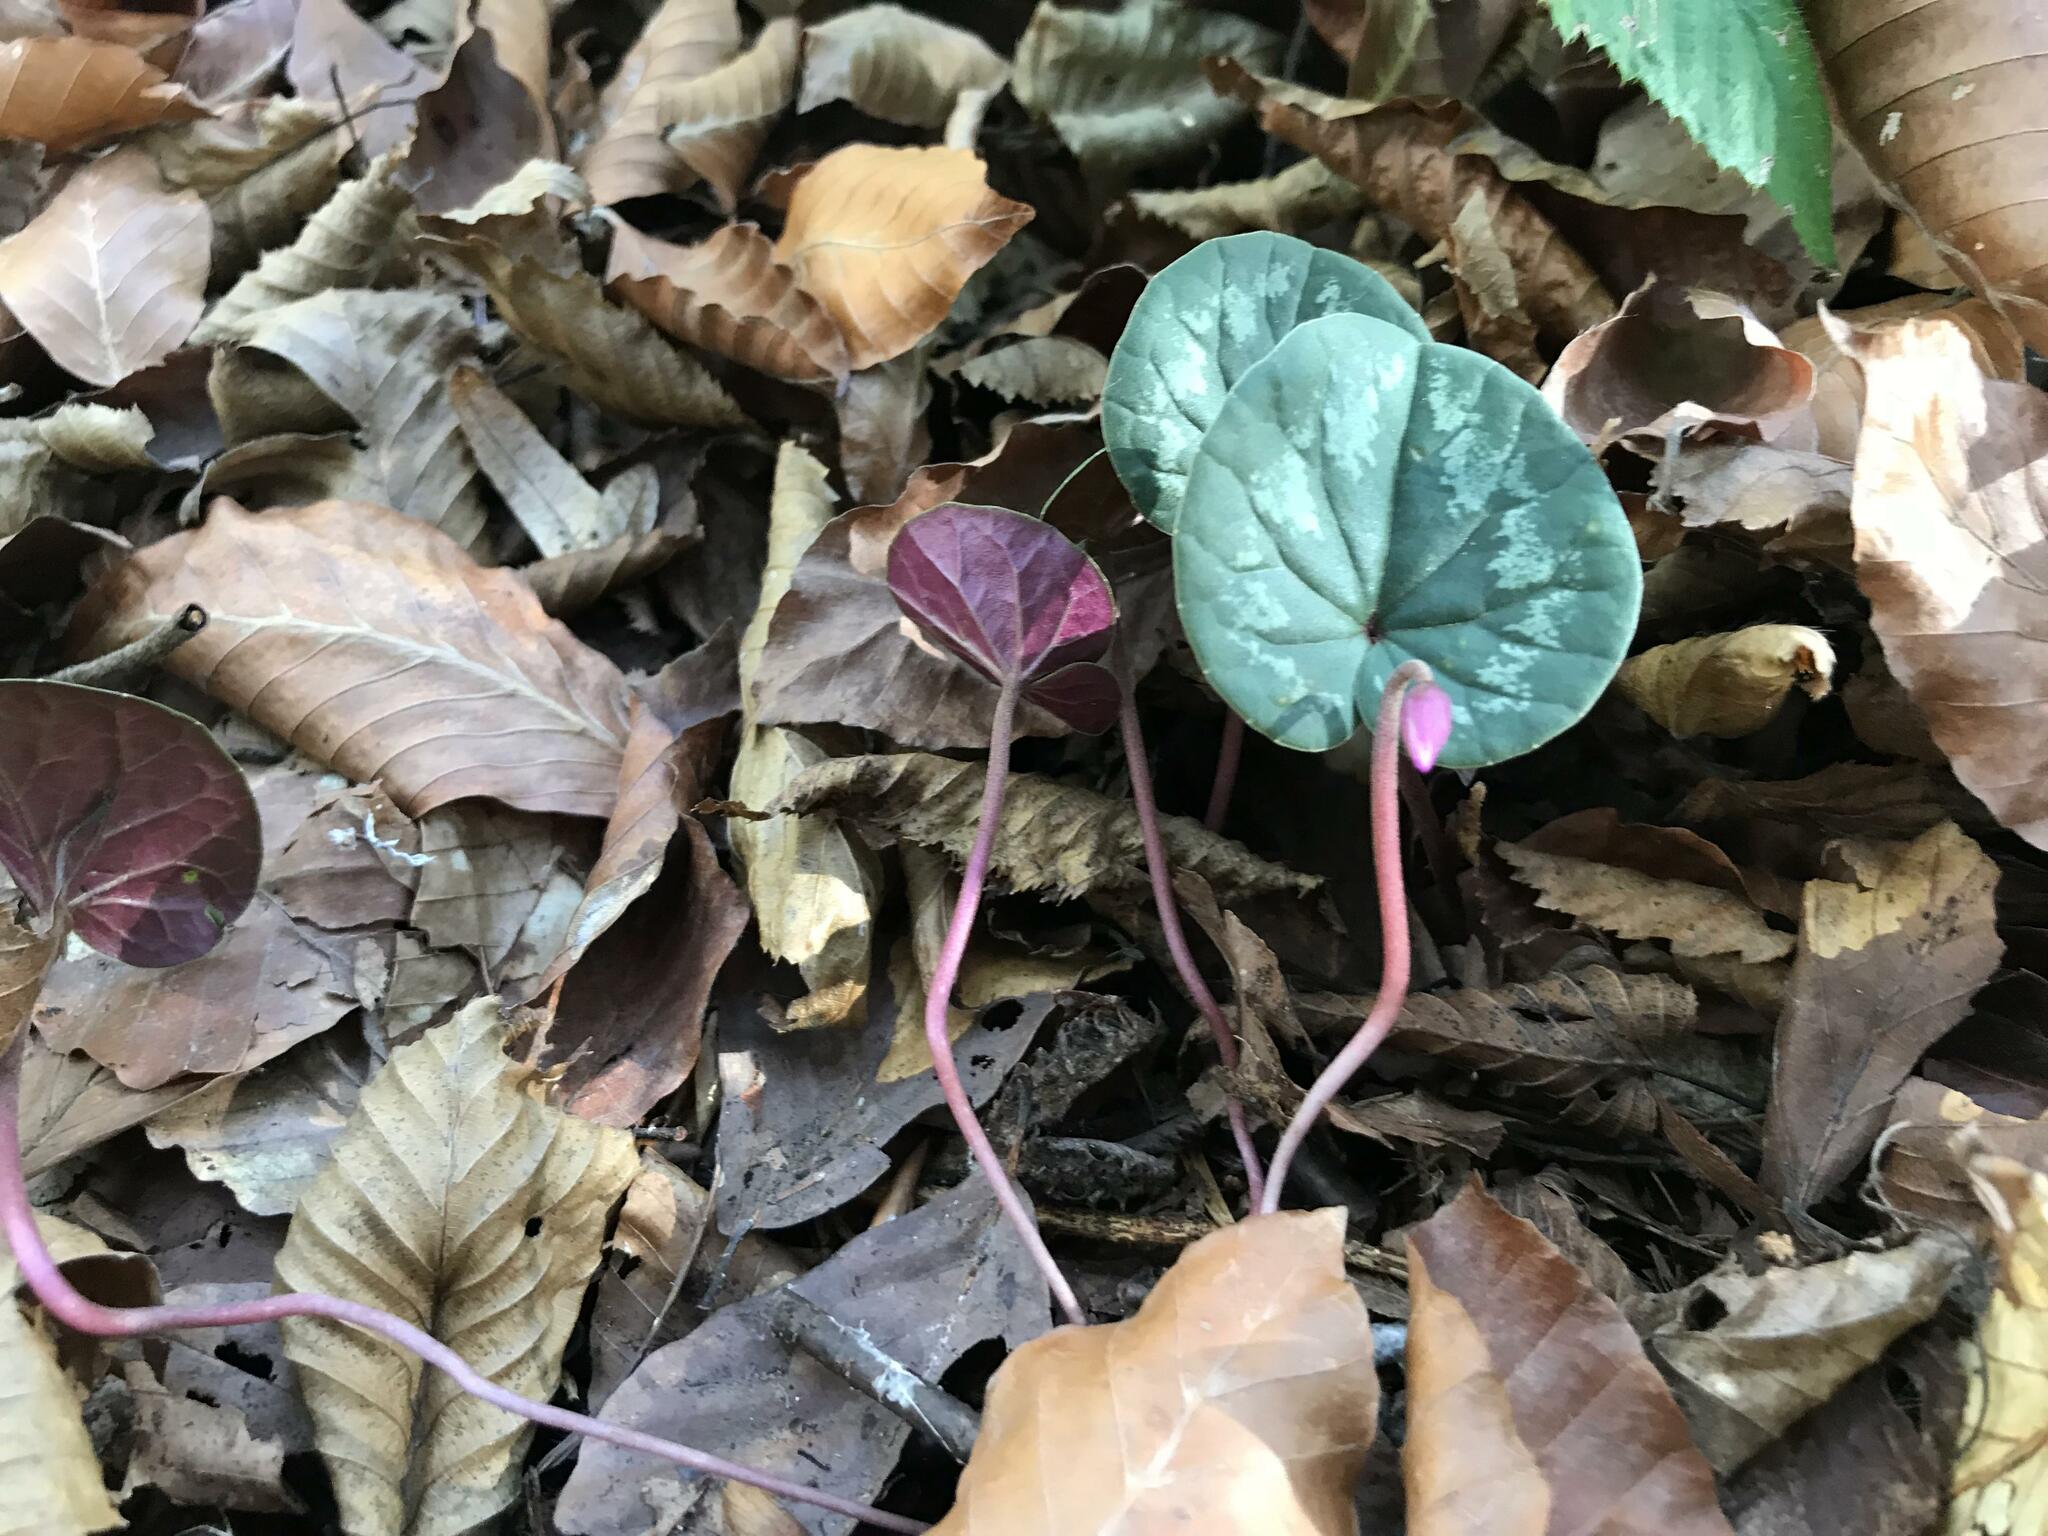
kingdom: Plantae
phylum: Tracheophyta
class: Magnoliopsida
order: Ericales
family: Primulaceae
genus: Cyclamen
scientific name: Cyclamen coum
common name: Eastern sowbread
